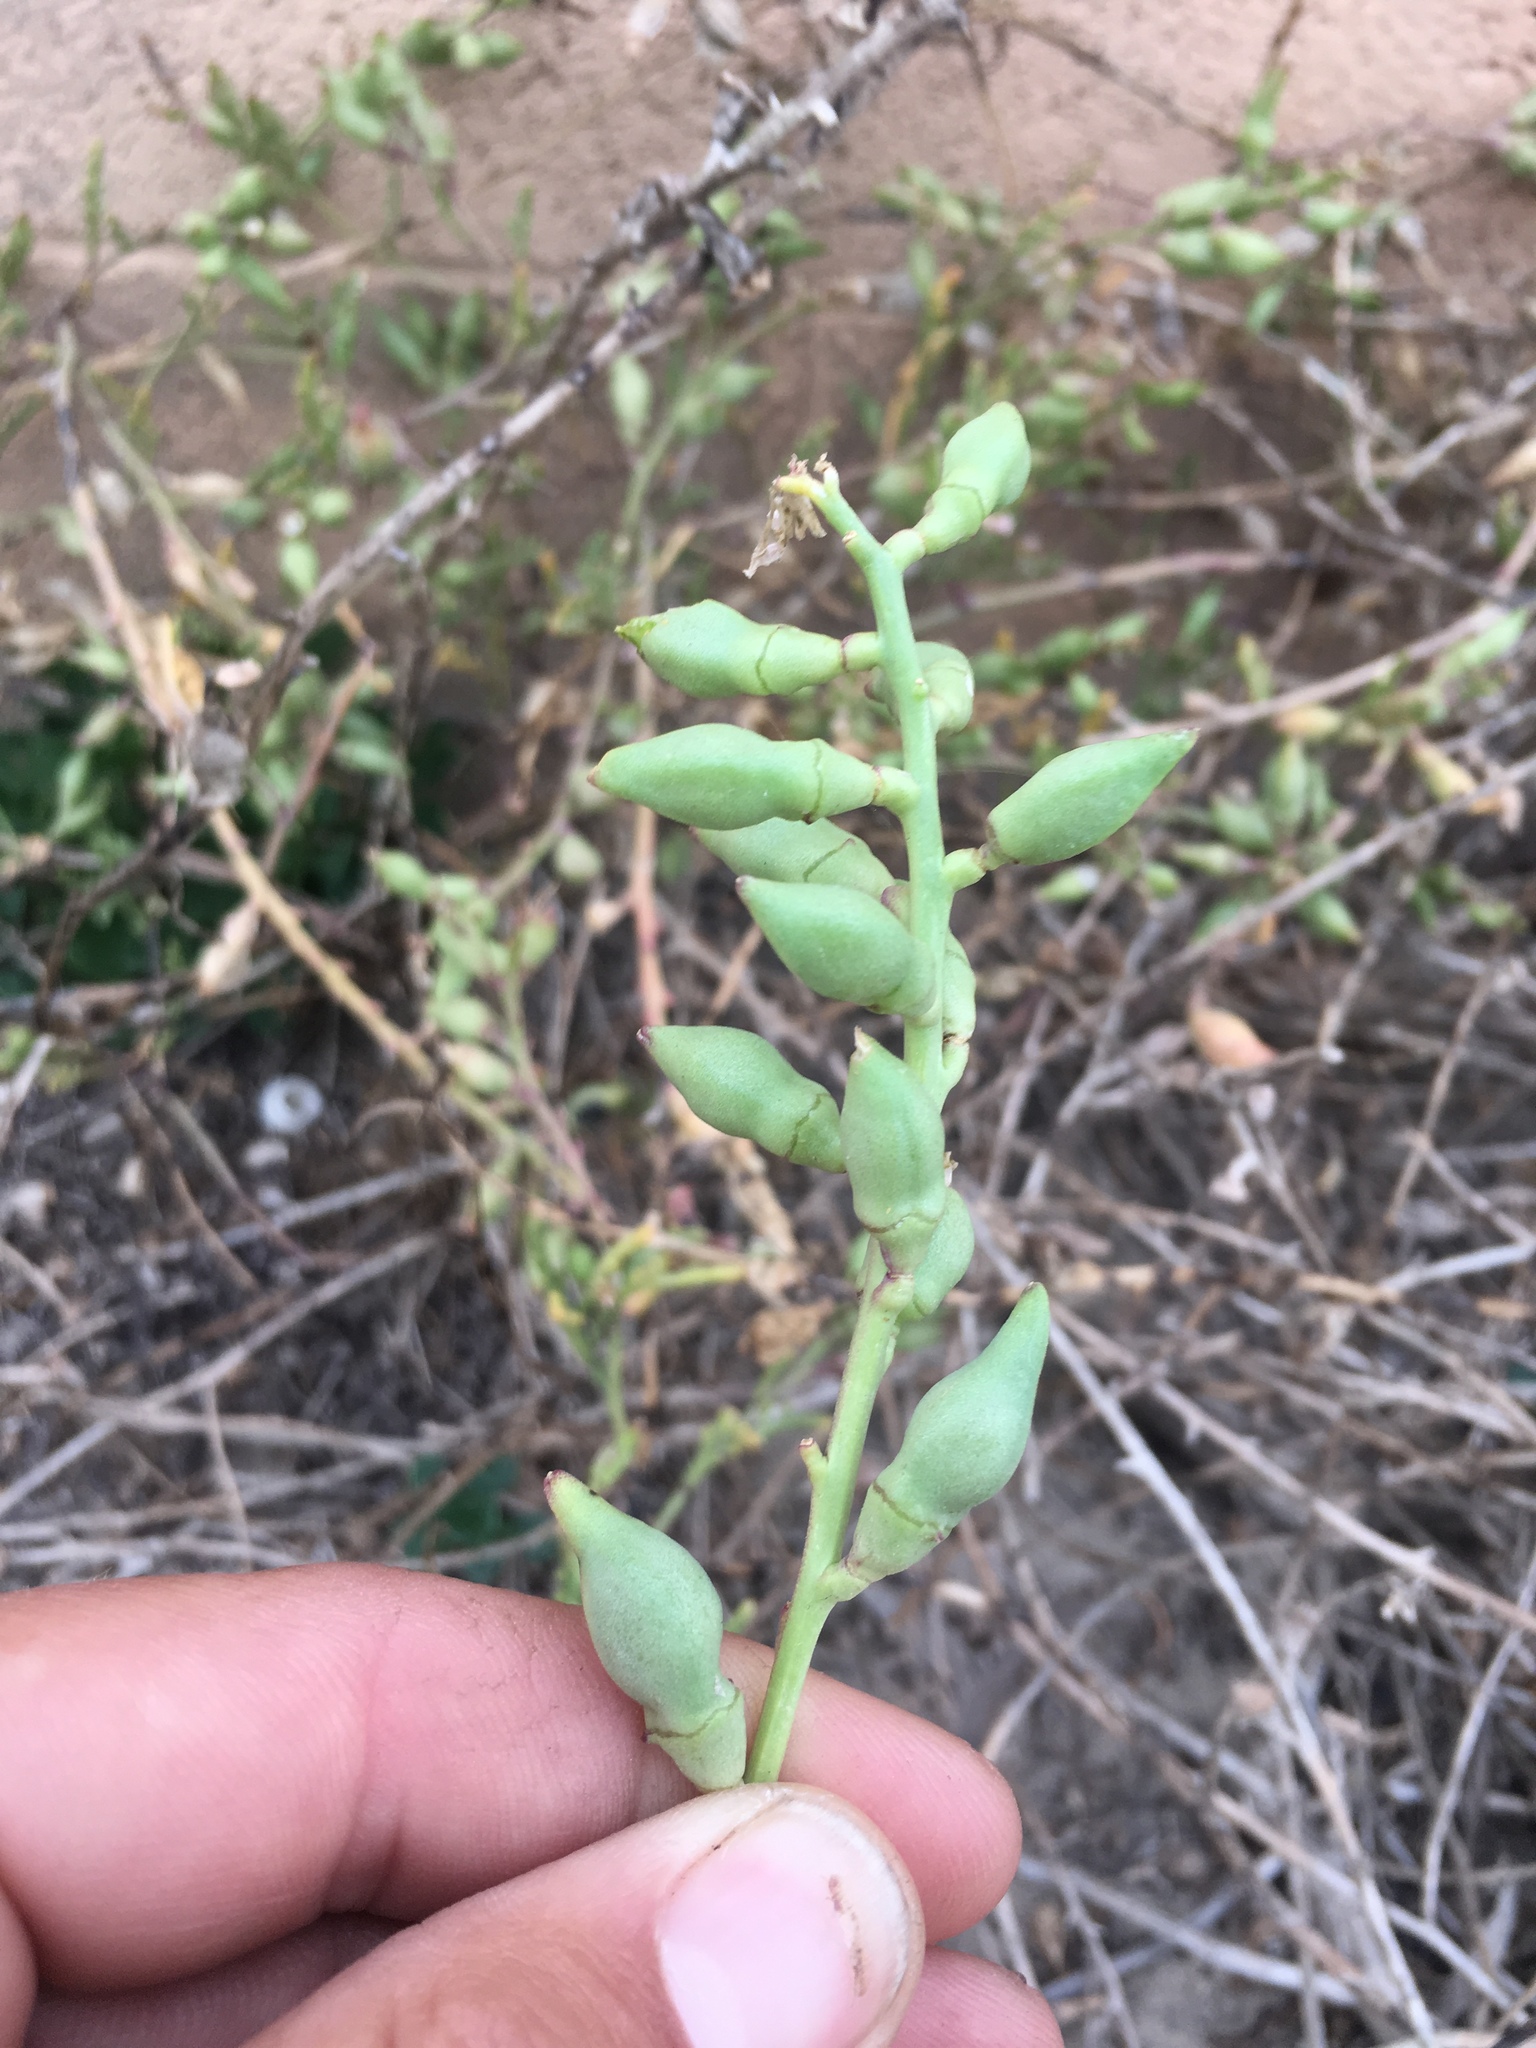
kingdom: Plantae
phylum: Tracheophyta
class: Magnoliopsida
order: Brassicales
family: Brassicaceae
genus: Cakile
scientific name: Cakile maritima
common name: Sea rocket
